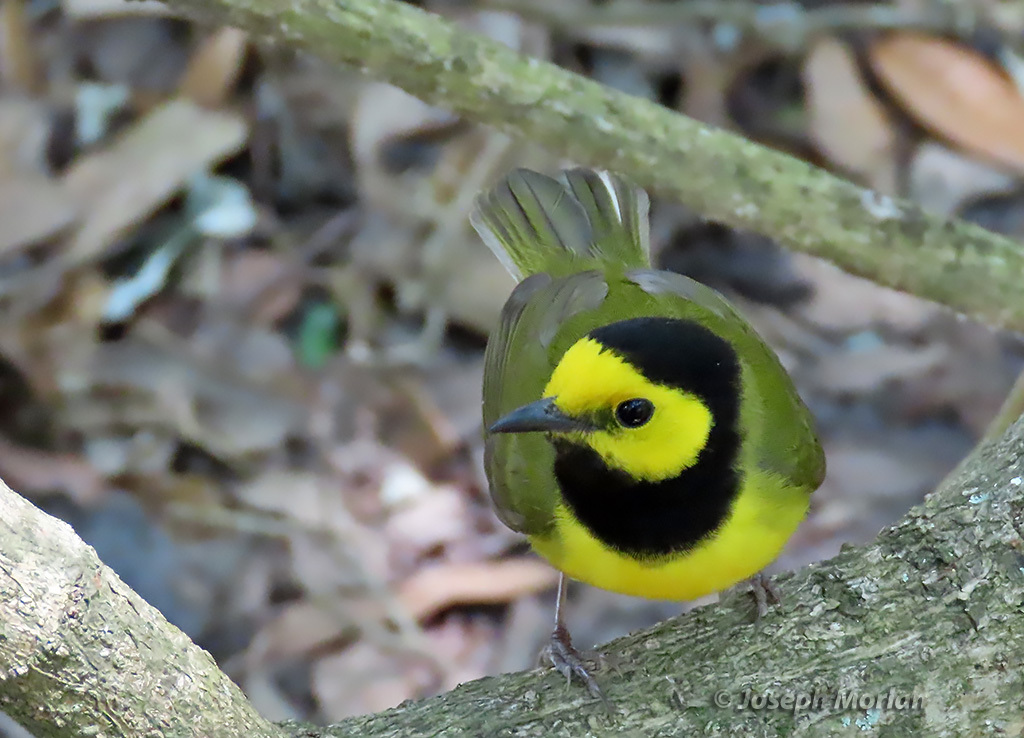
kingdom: Animalia
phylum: Chordata
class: Aves
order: Passeriformes
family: Parulidae
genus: Setophaga
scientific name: Setophaga citrina
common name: Hooded warbler
